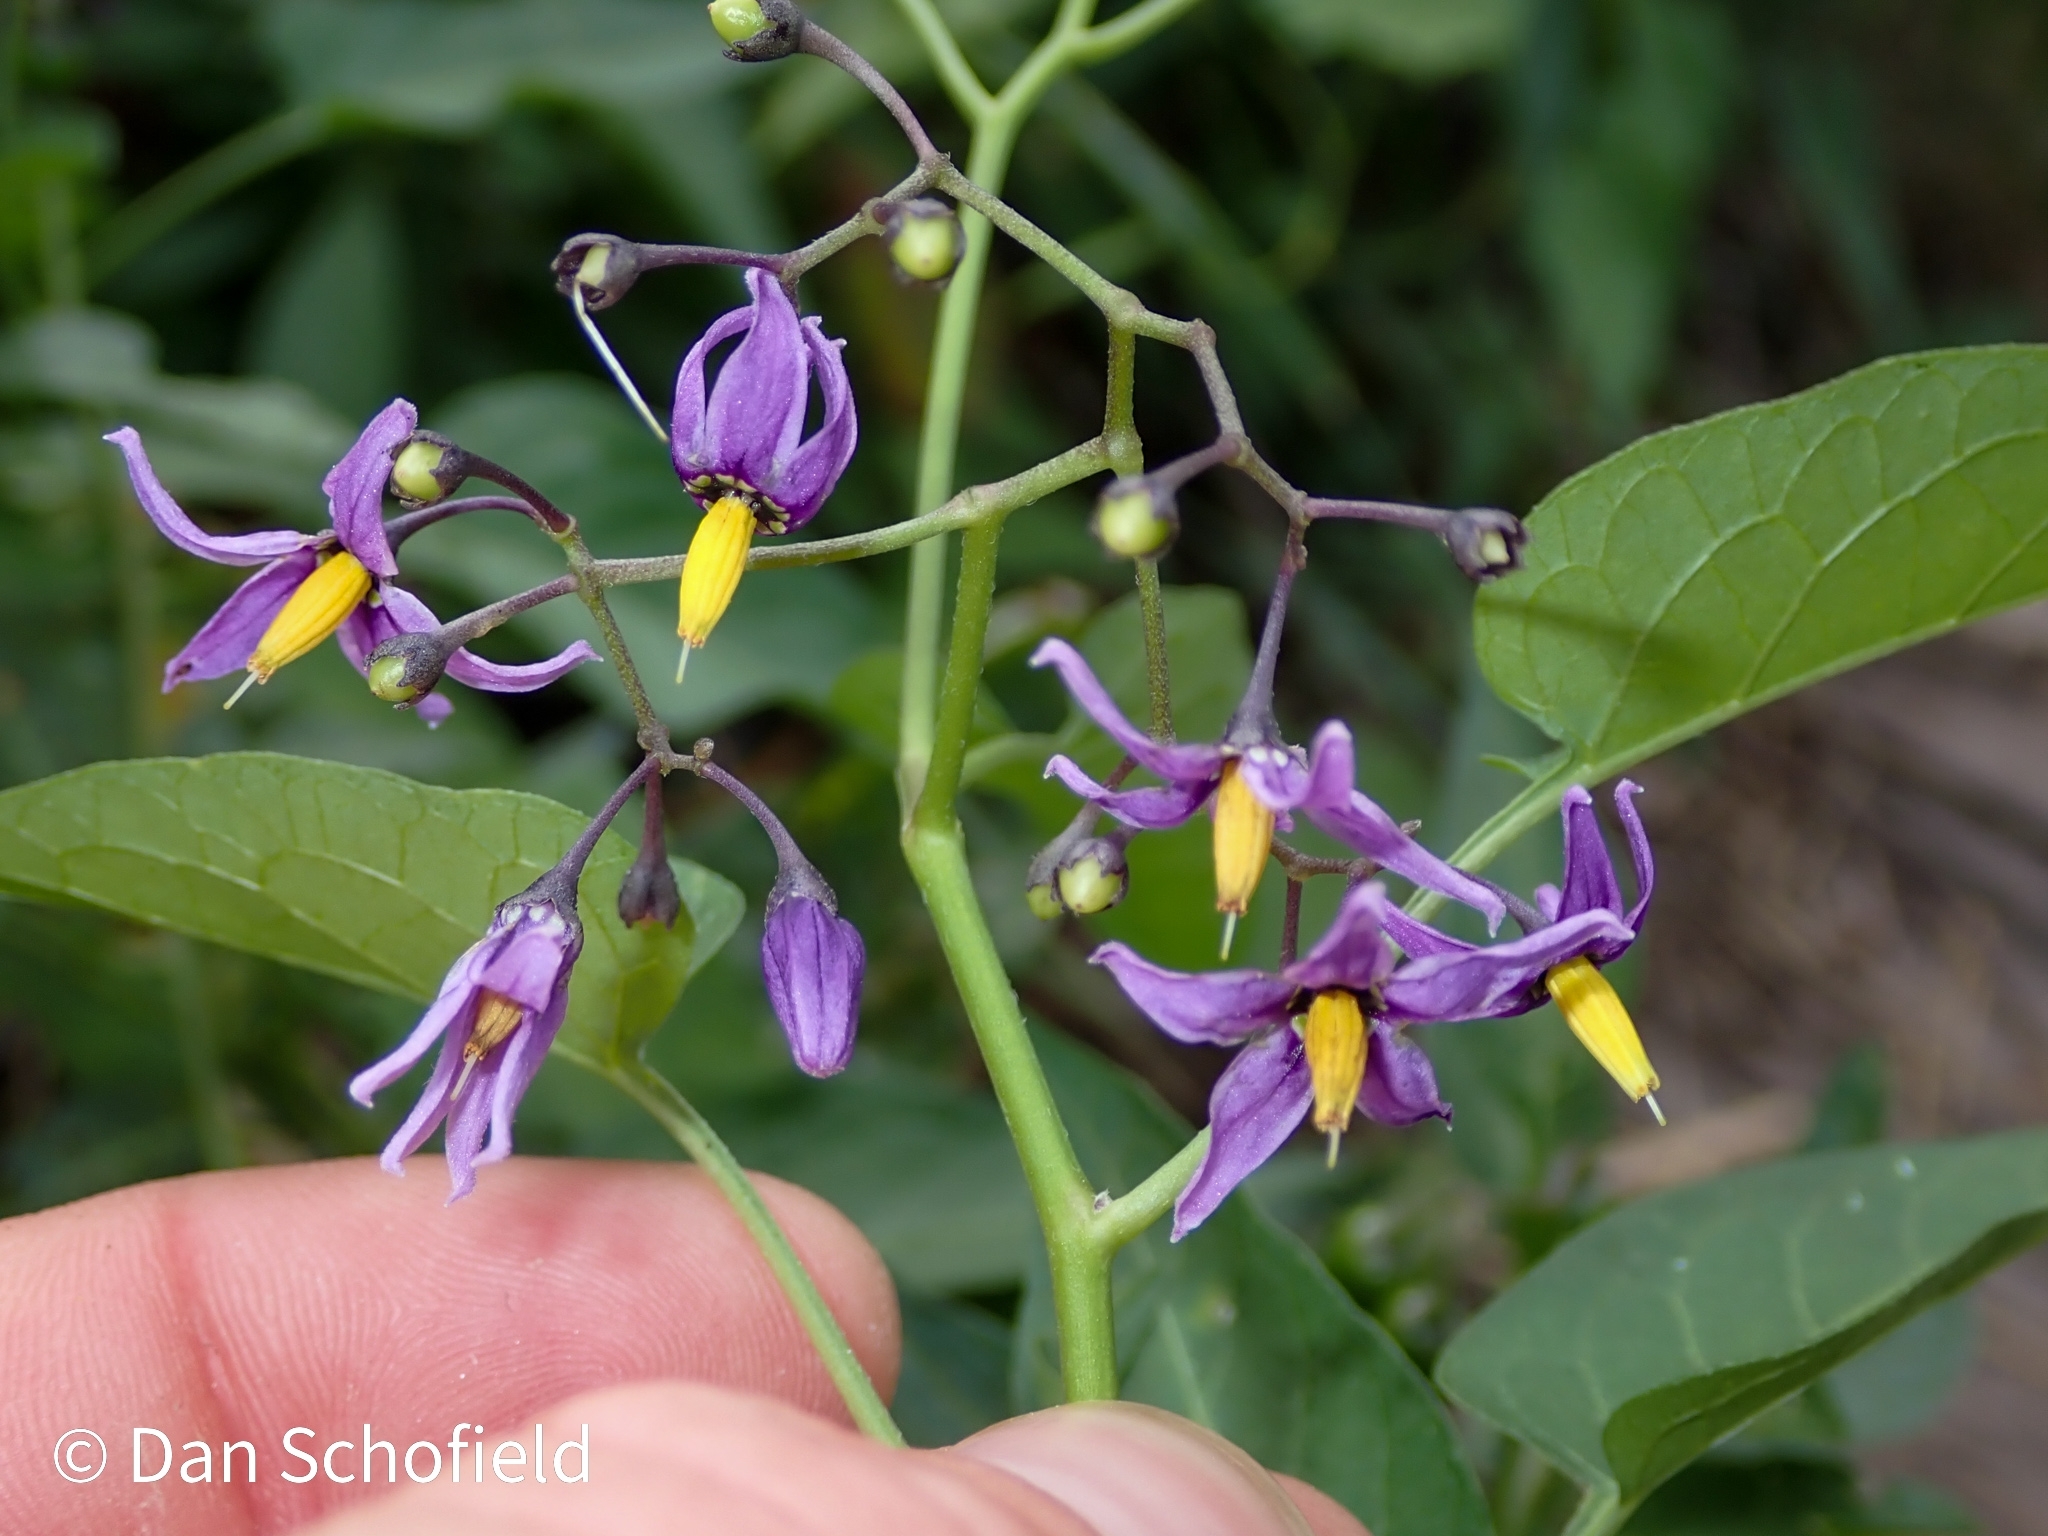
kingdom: Plantae
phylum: Tracheophyta
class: Magnoliopsida
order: Solanales
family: Solanaceae
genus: Solanum
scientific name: Solanum dulcamara
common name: Climbing nightshade
